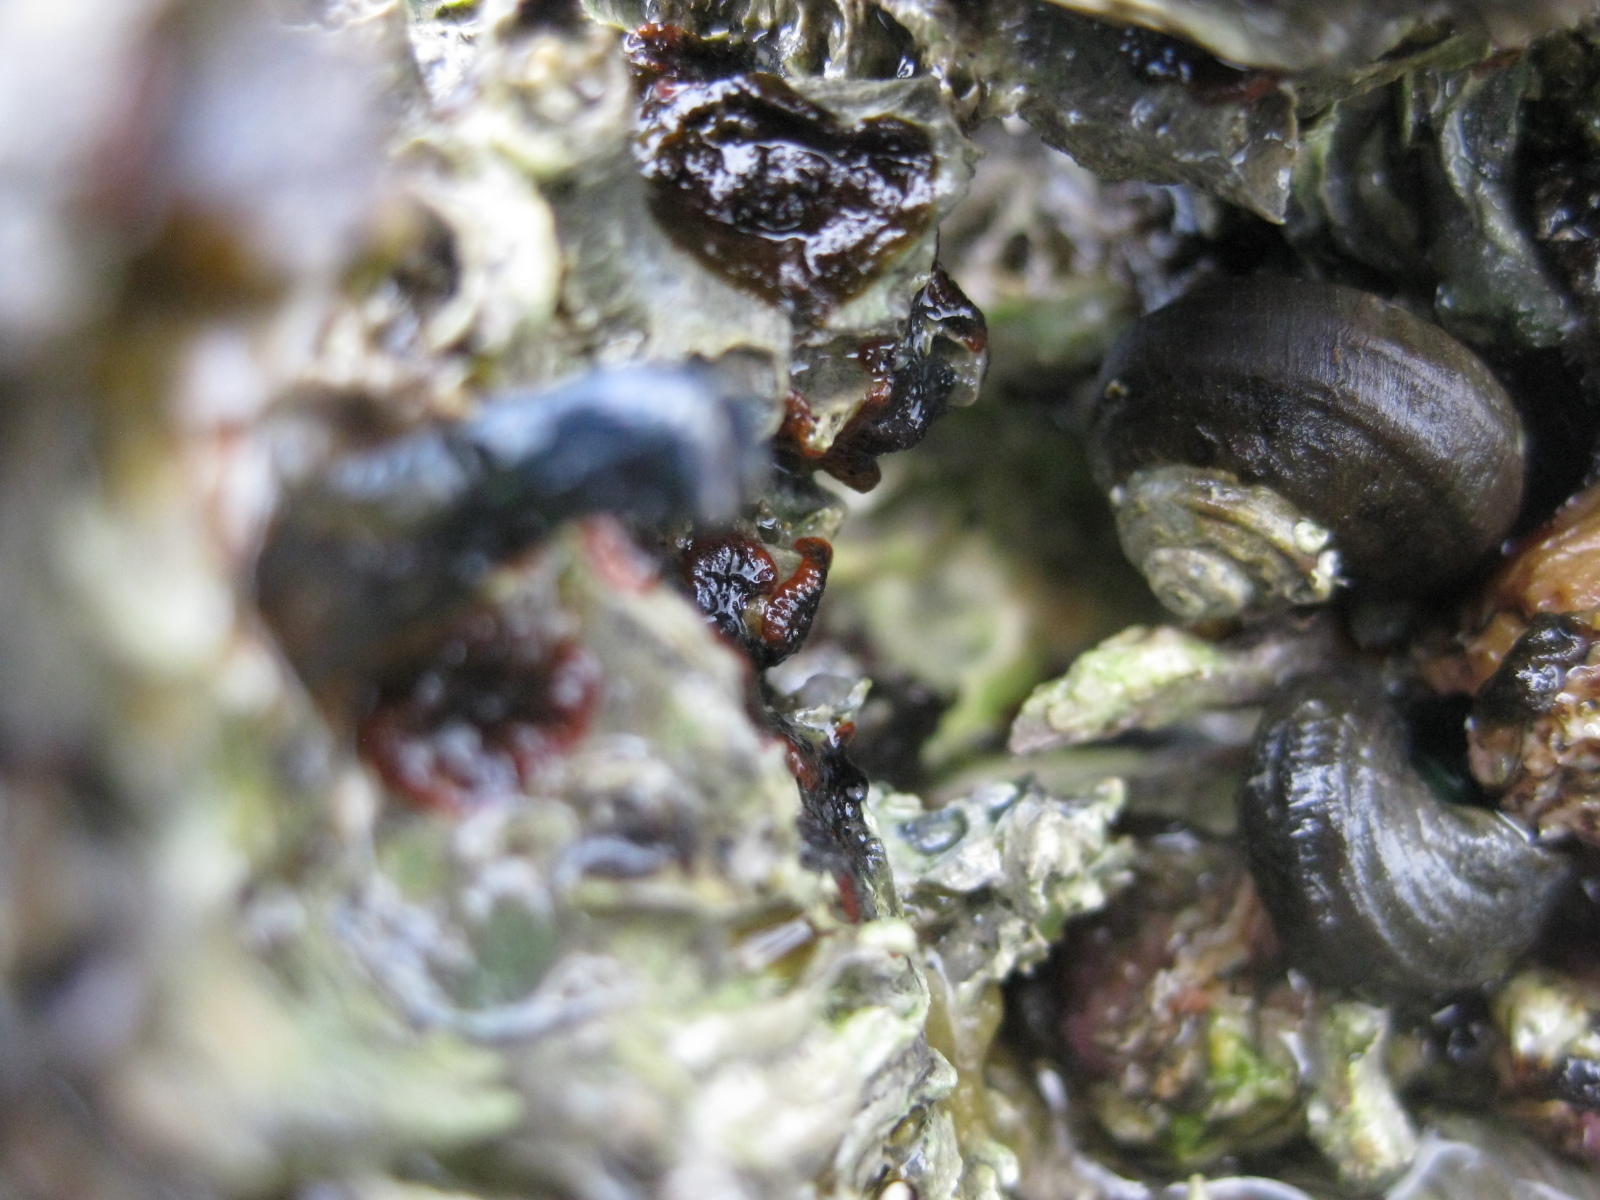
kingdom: Animalia
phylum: Bryozoa
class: Gymnolaemata
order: Cheilostomatida
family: Watersiporidae
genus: Watersipora
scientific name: Watersipora subatra
